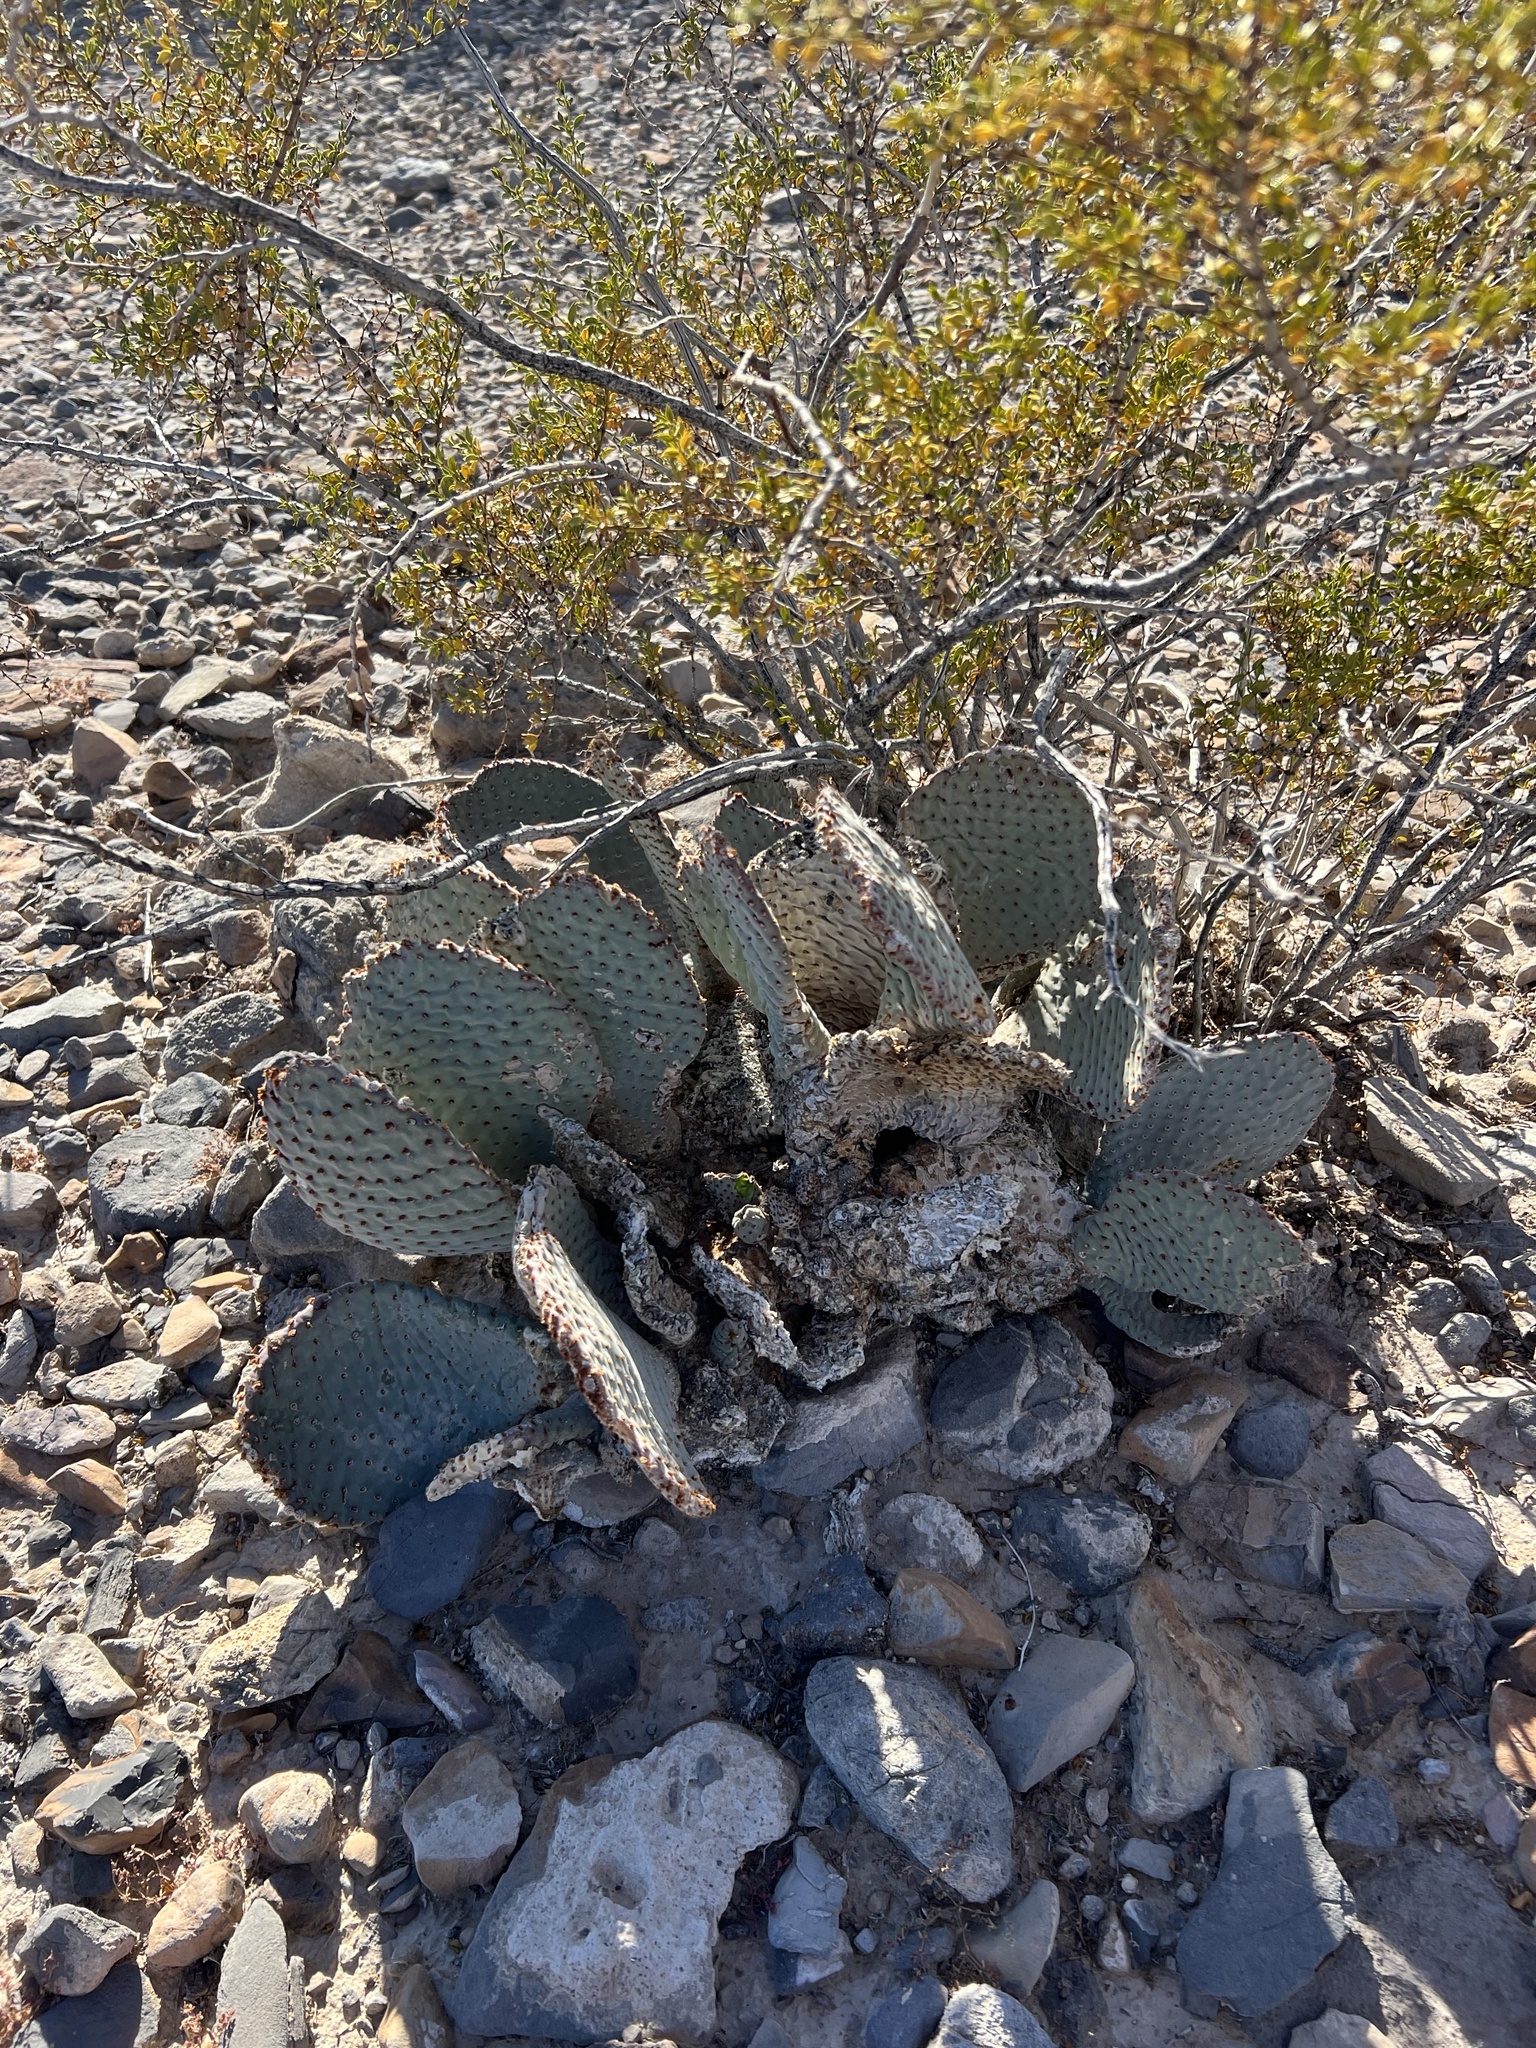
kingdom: Plantae
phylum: Tracheophyta
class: Magnoliopsida
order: Caryophyllales
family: Cactaceae
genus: Opuntia
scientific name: Opuntia basilaris
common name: Beavertail prickly-pear
